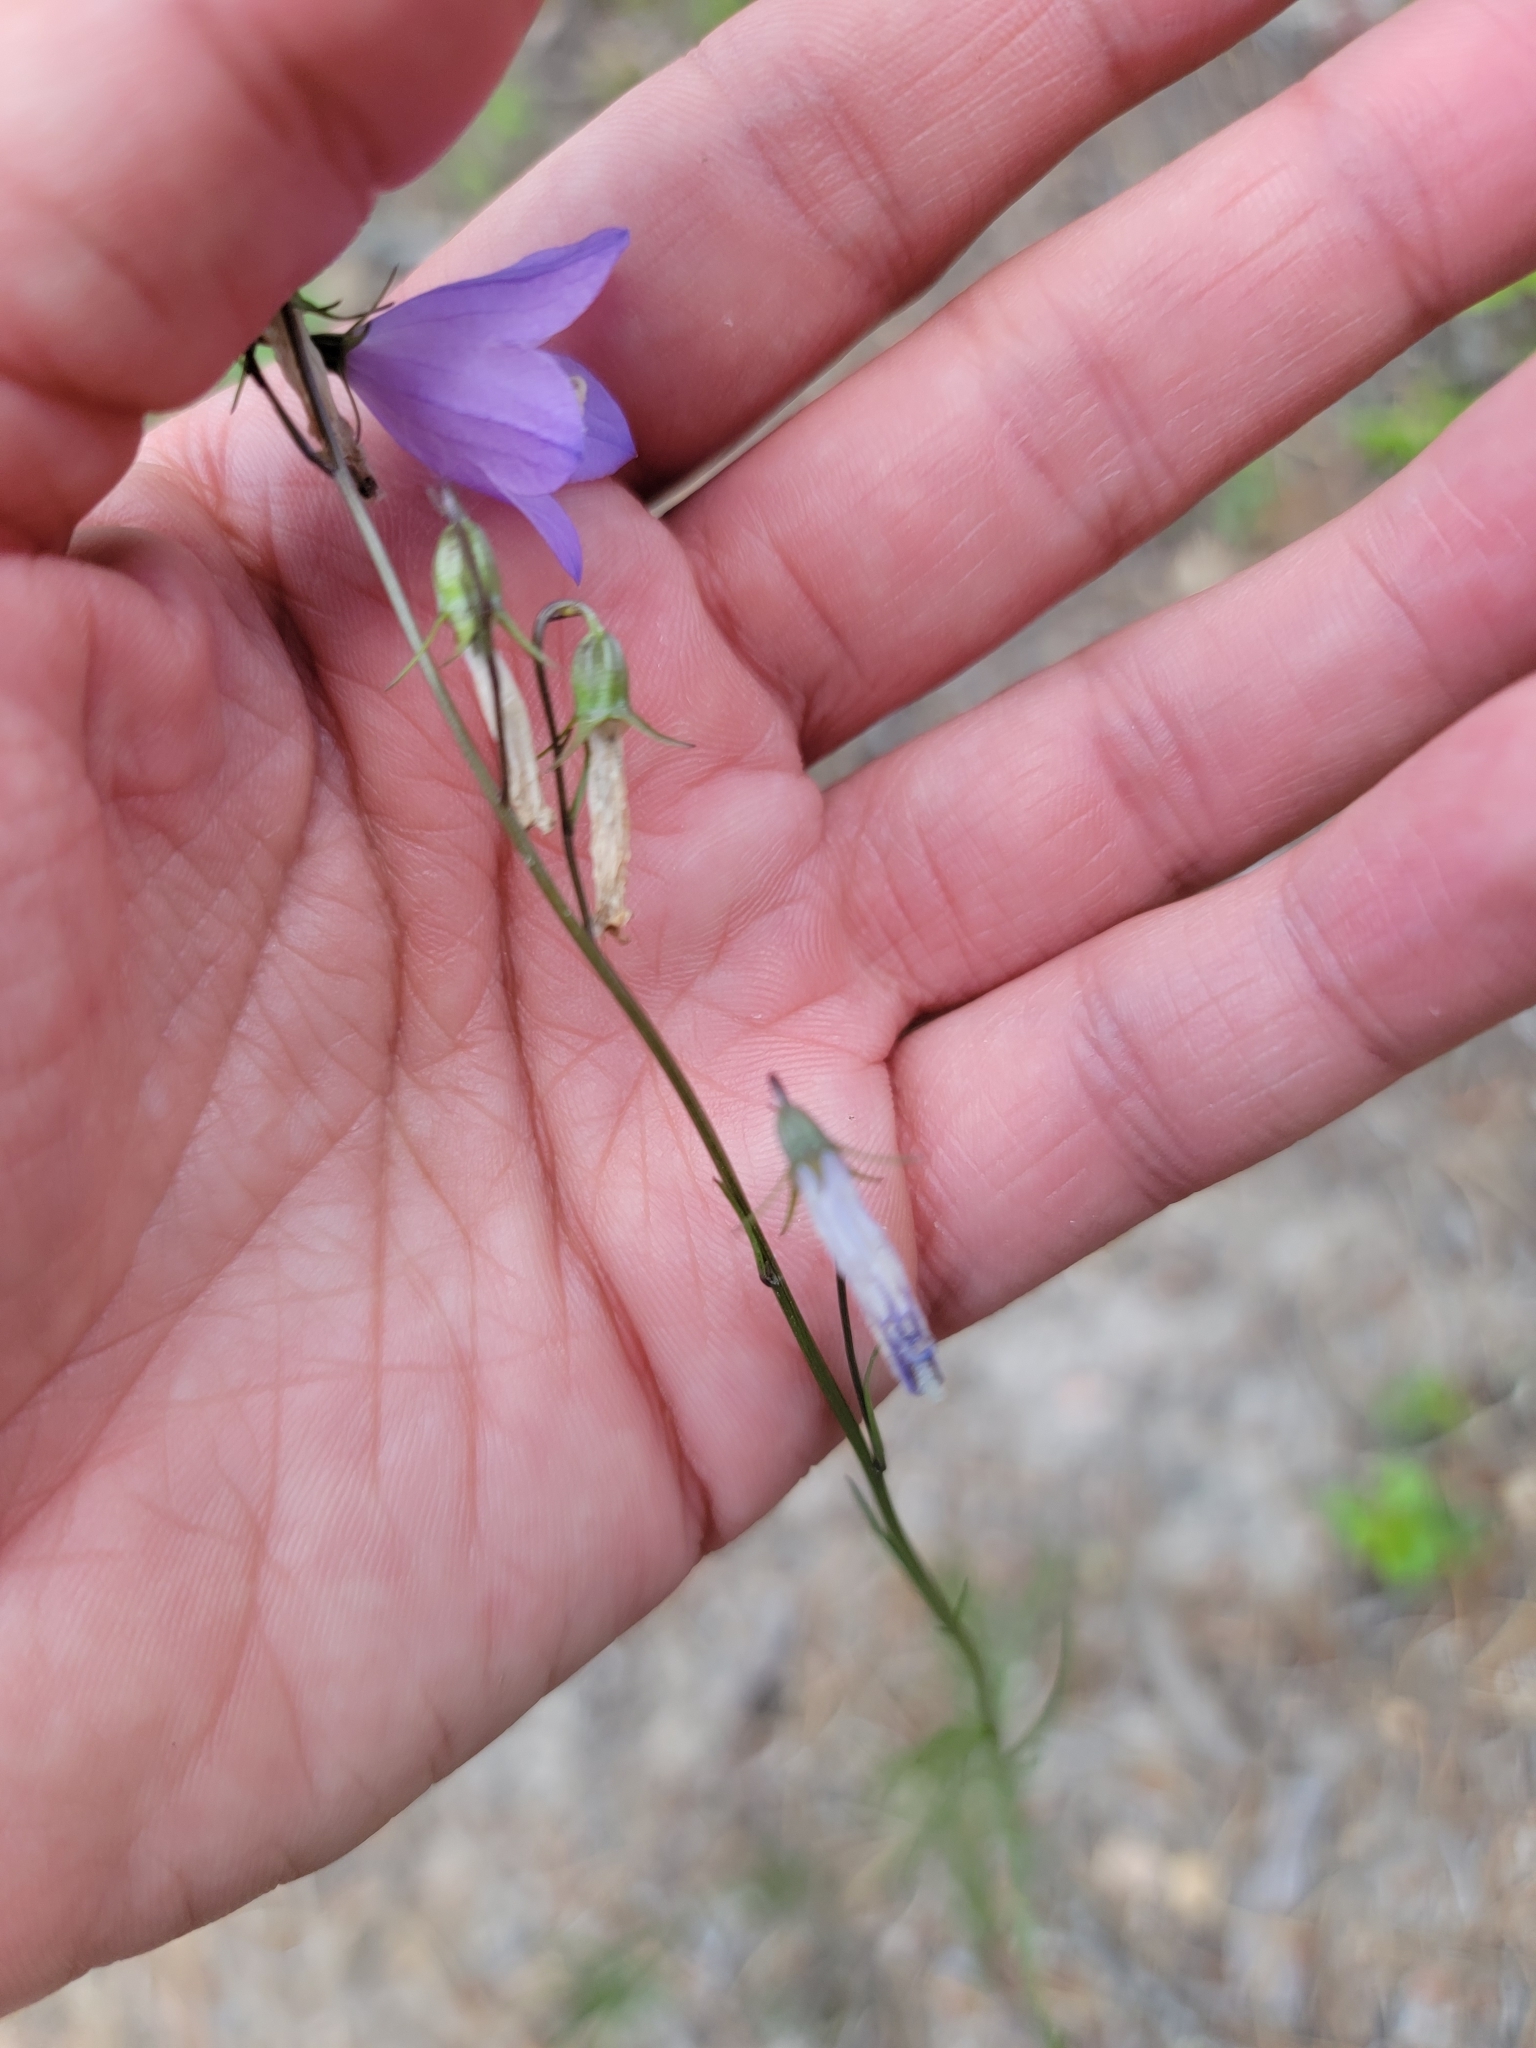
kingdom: Plantae
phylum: Tracheophyta
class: Magnoliopsida
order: Asterales
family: Campanulaceae
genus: Campanula
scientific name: Campanula alaskana
